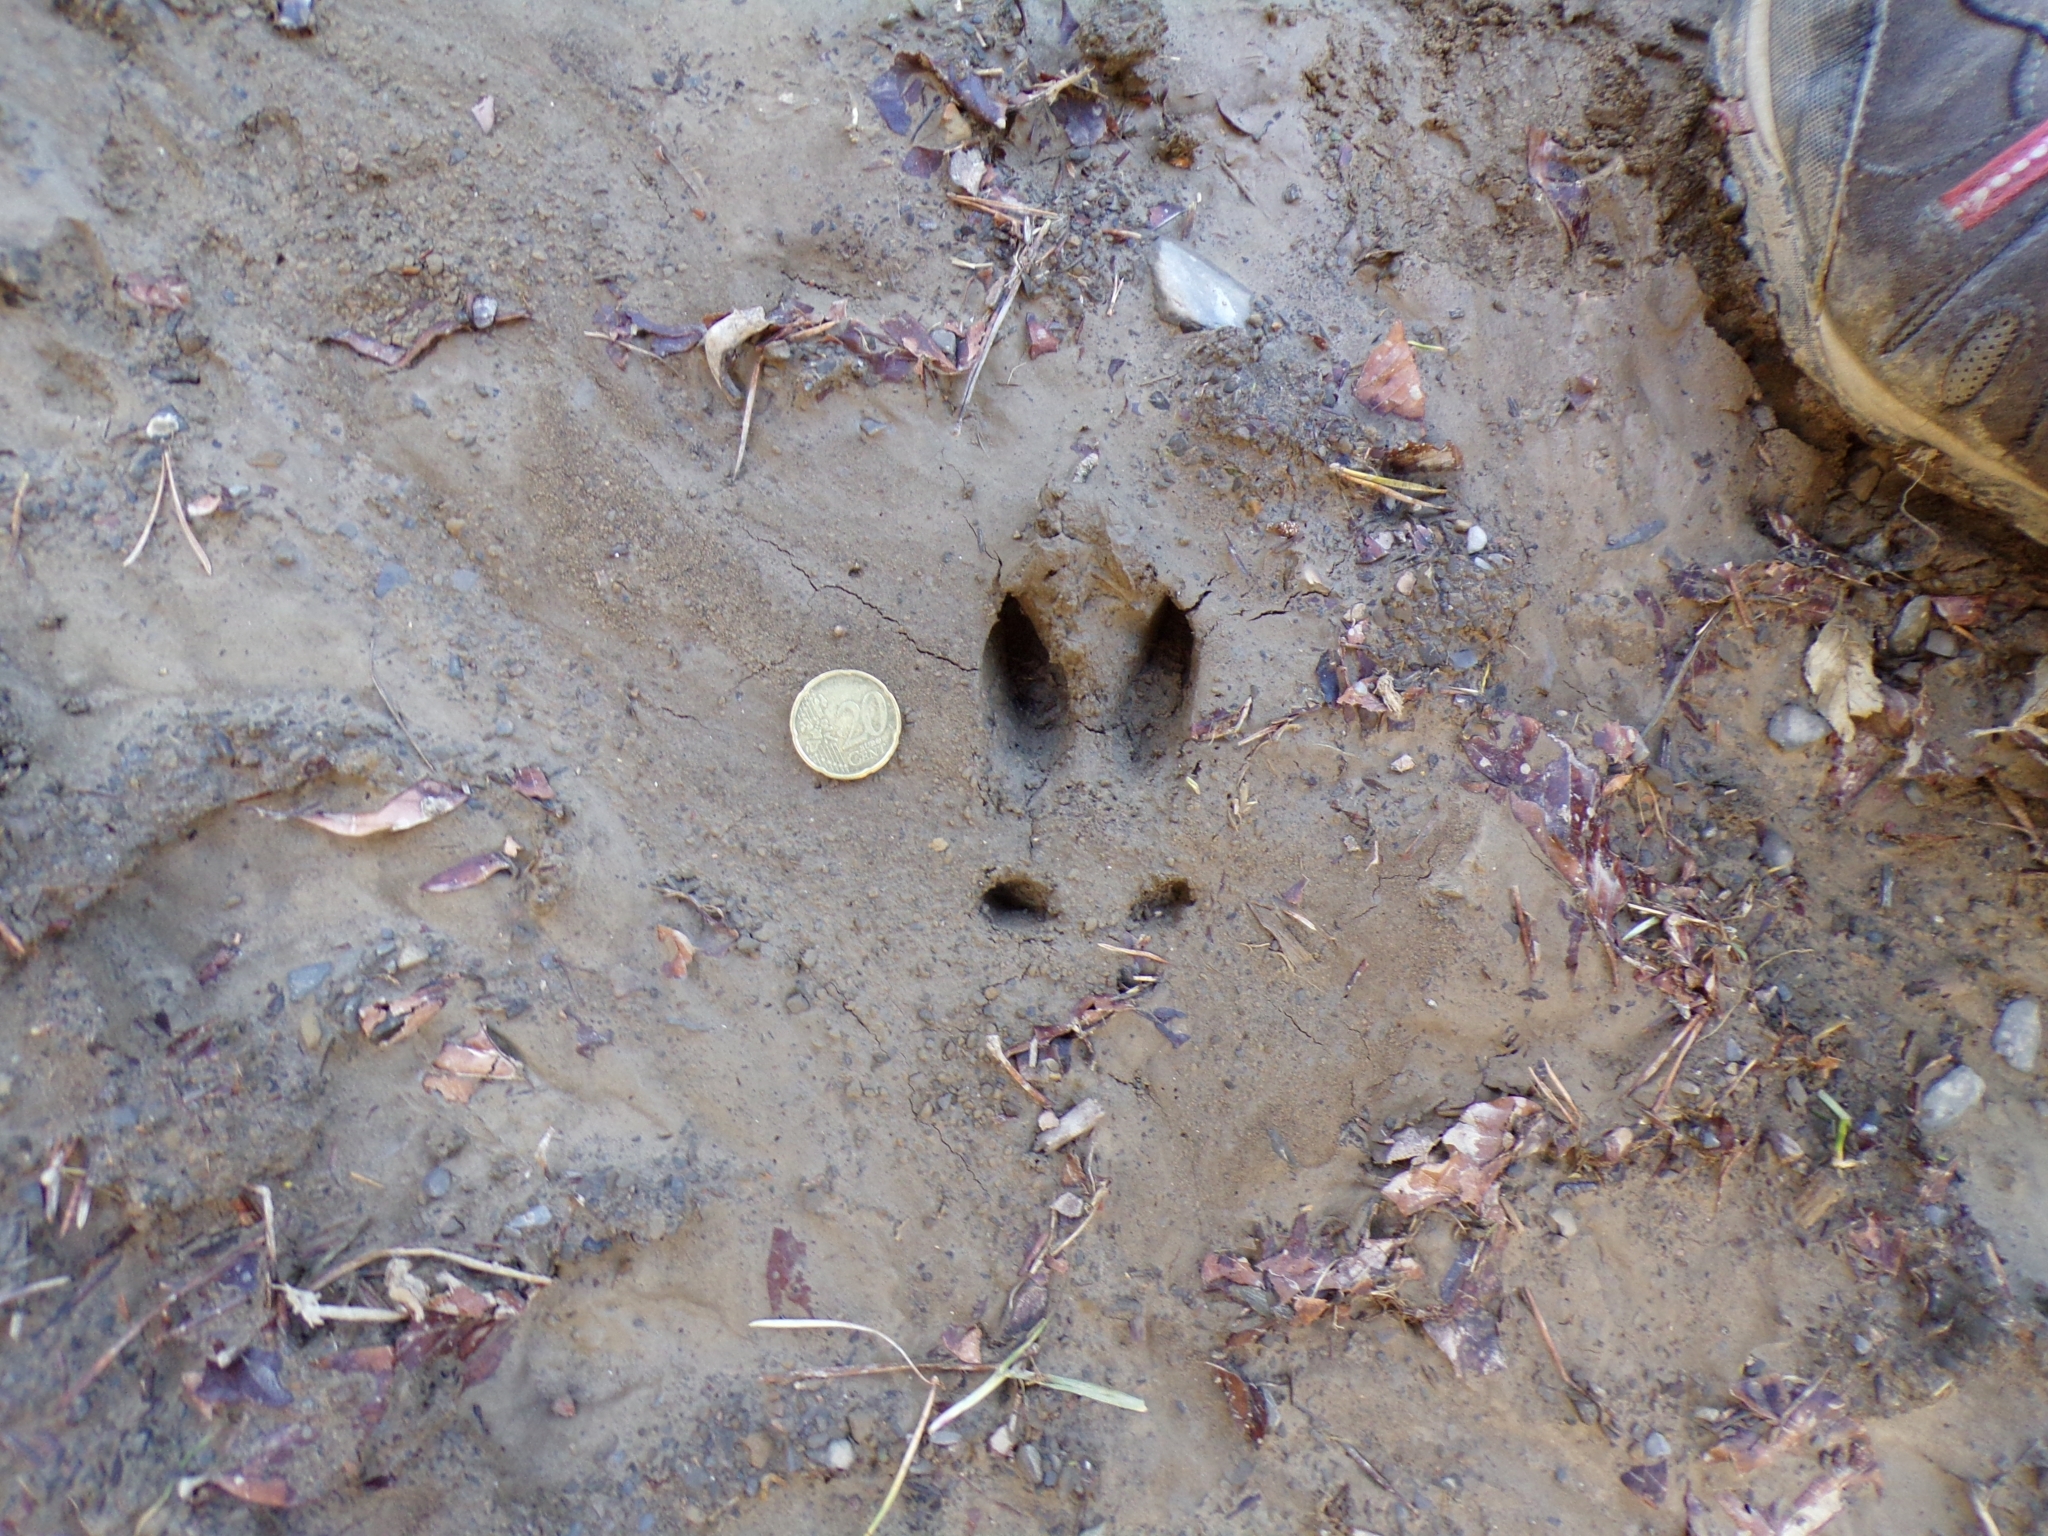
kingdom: Animalia
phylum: Chordata
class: Mammalia
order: Artiodactyla
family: Cervidae
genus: Capreolus
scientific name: Capreolus capreolus
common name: Western roe deer
